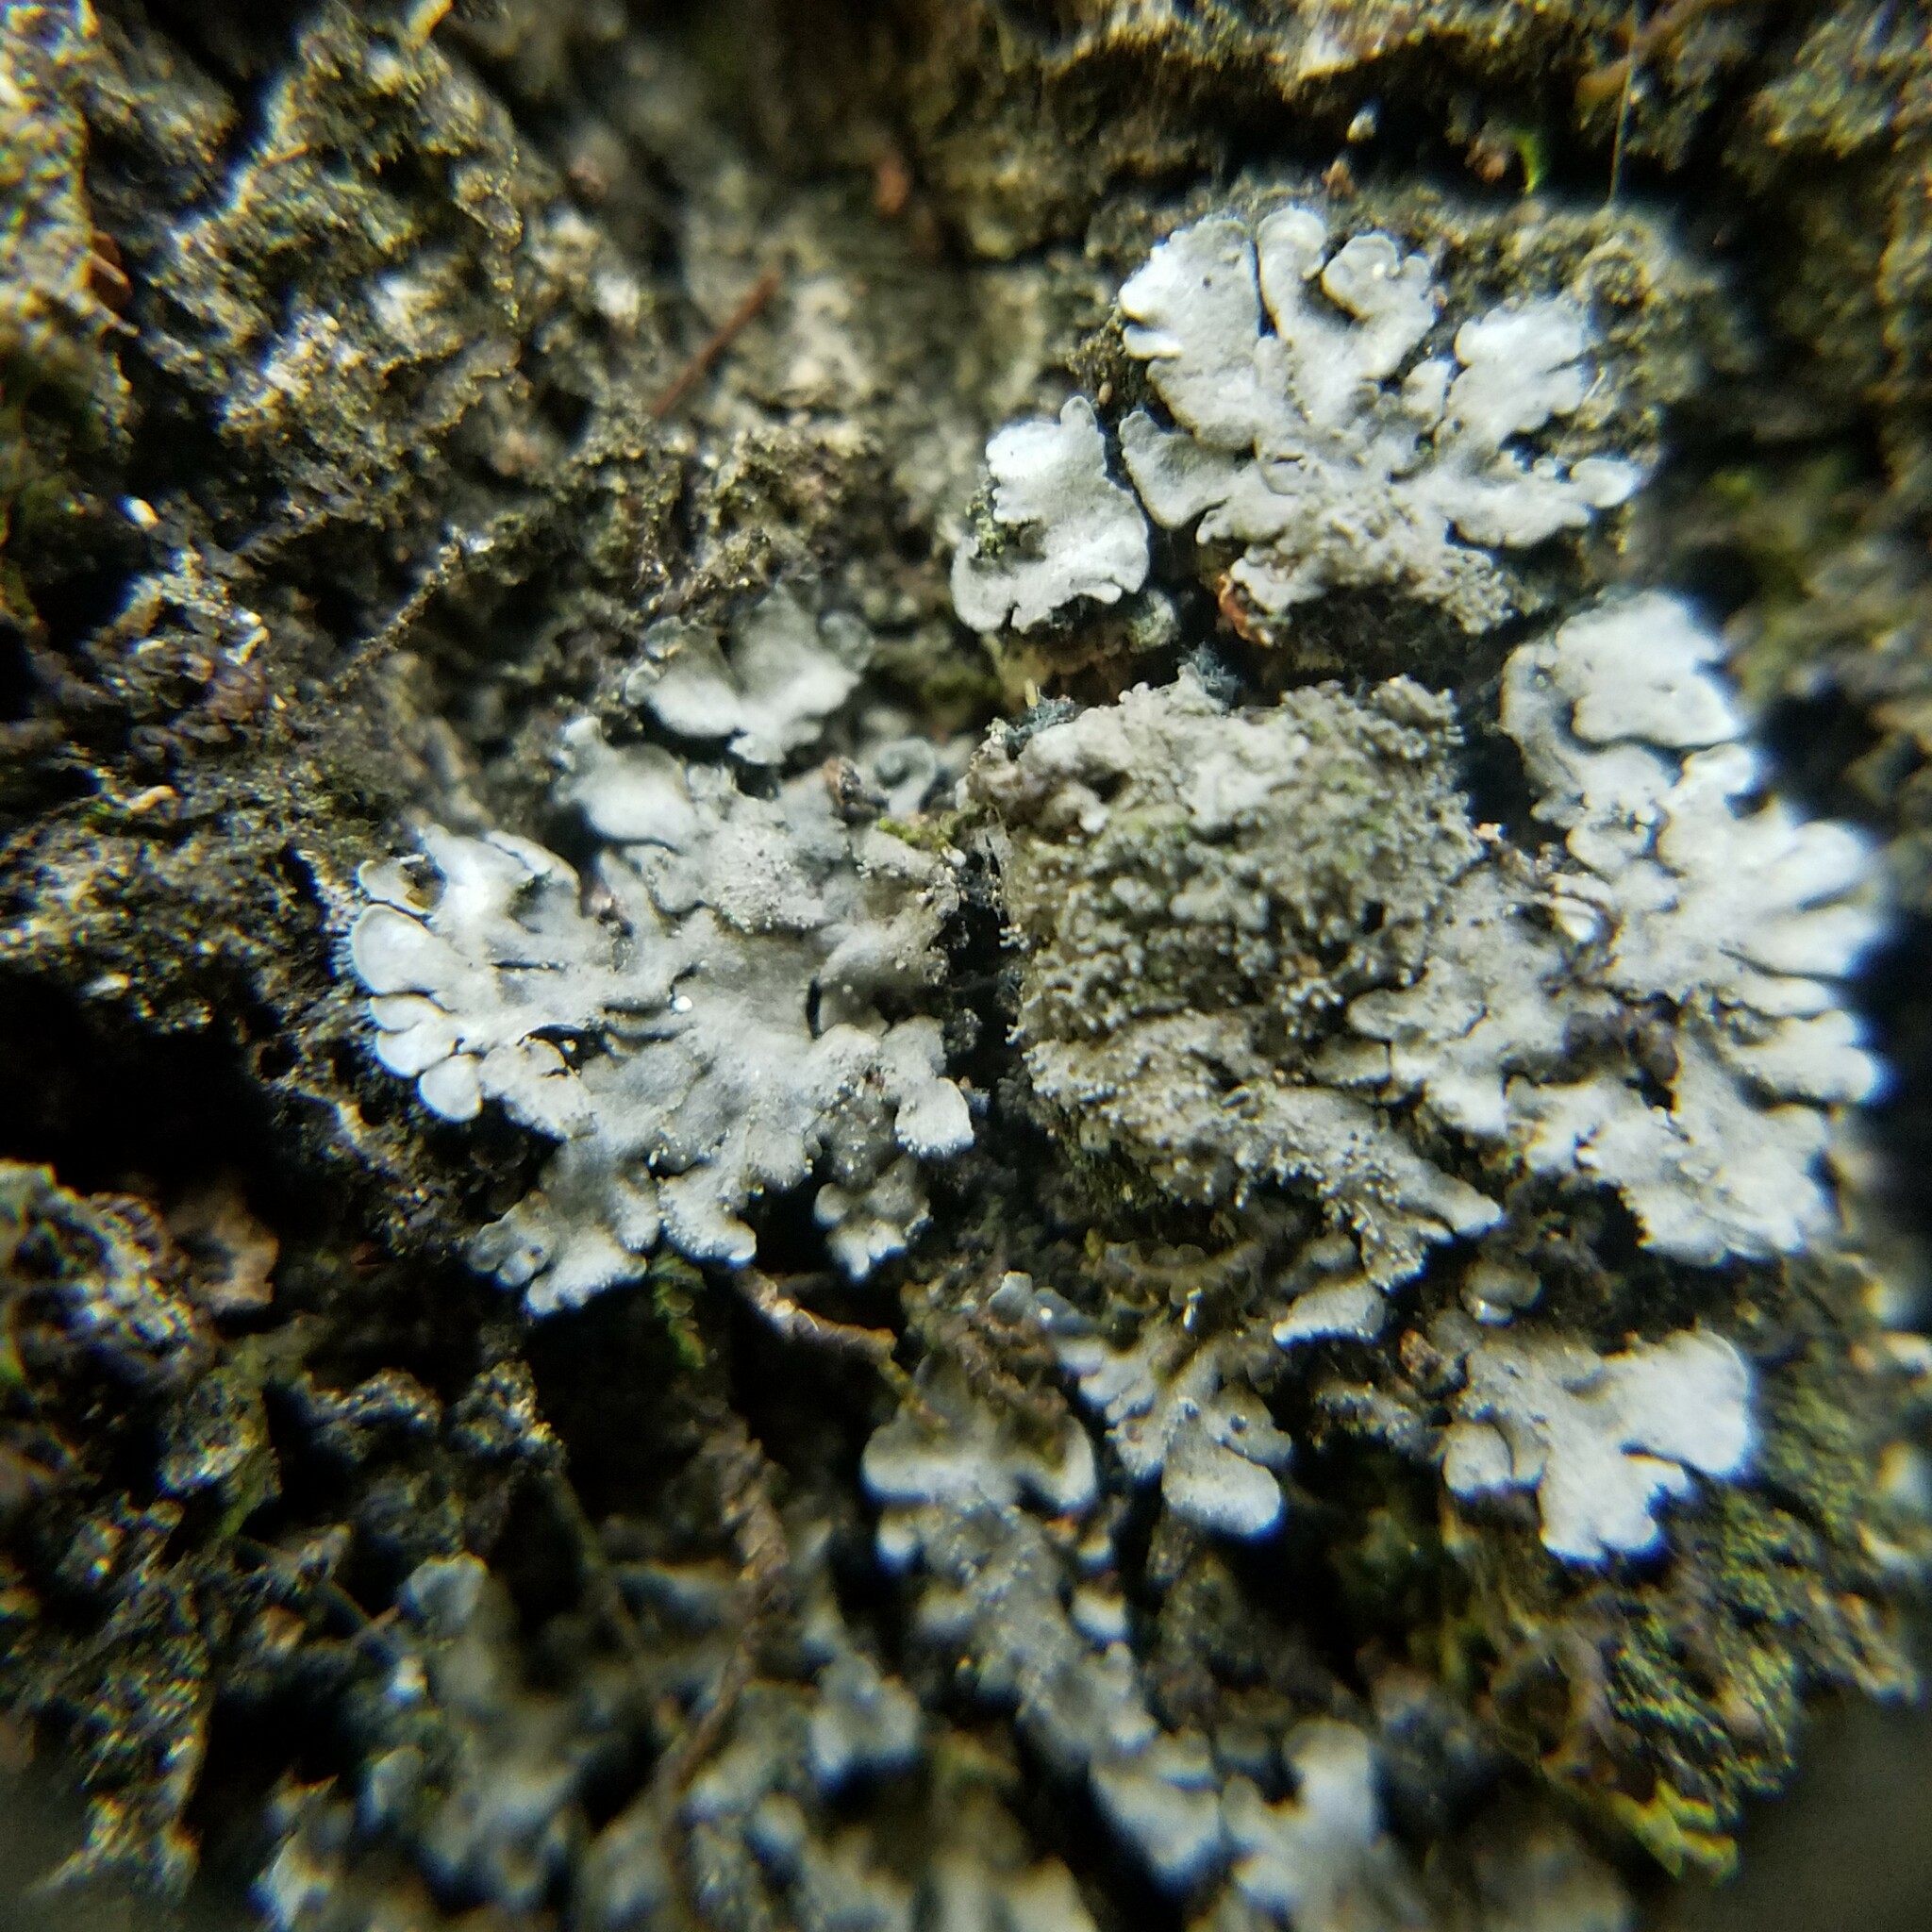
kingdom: Fungi
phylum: Ascomycota
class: Lecanoromycetes
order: Peltigerales
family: Coccocarpiaceae
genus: Coccocarpia
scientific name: Coccocarpia palmicola
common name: Salted shell lichen
